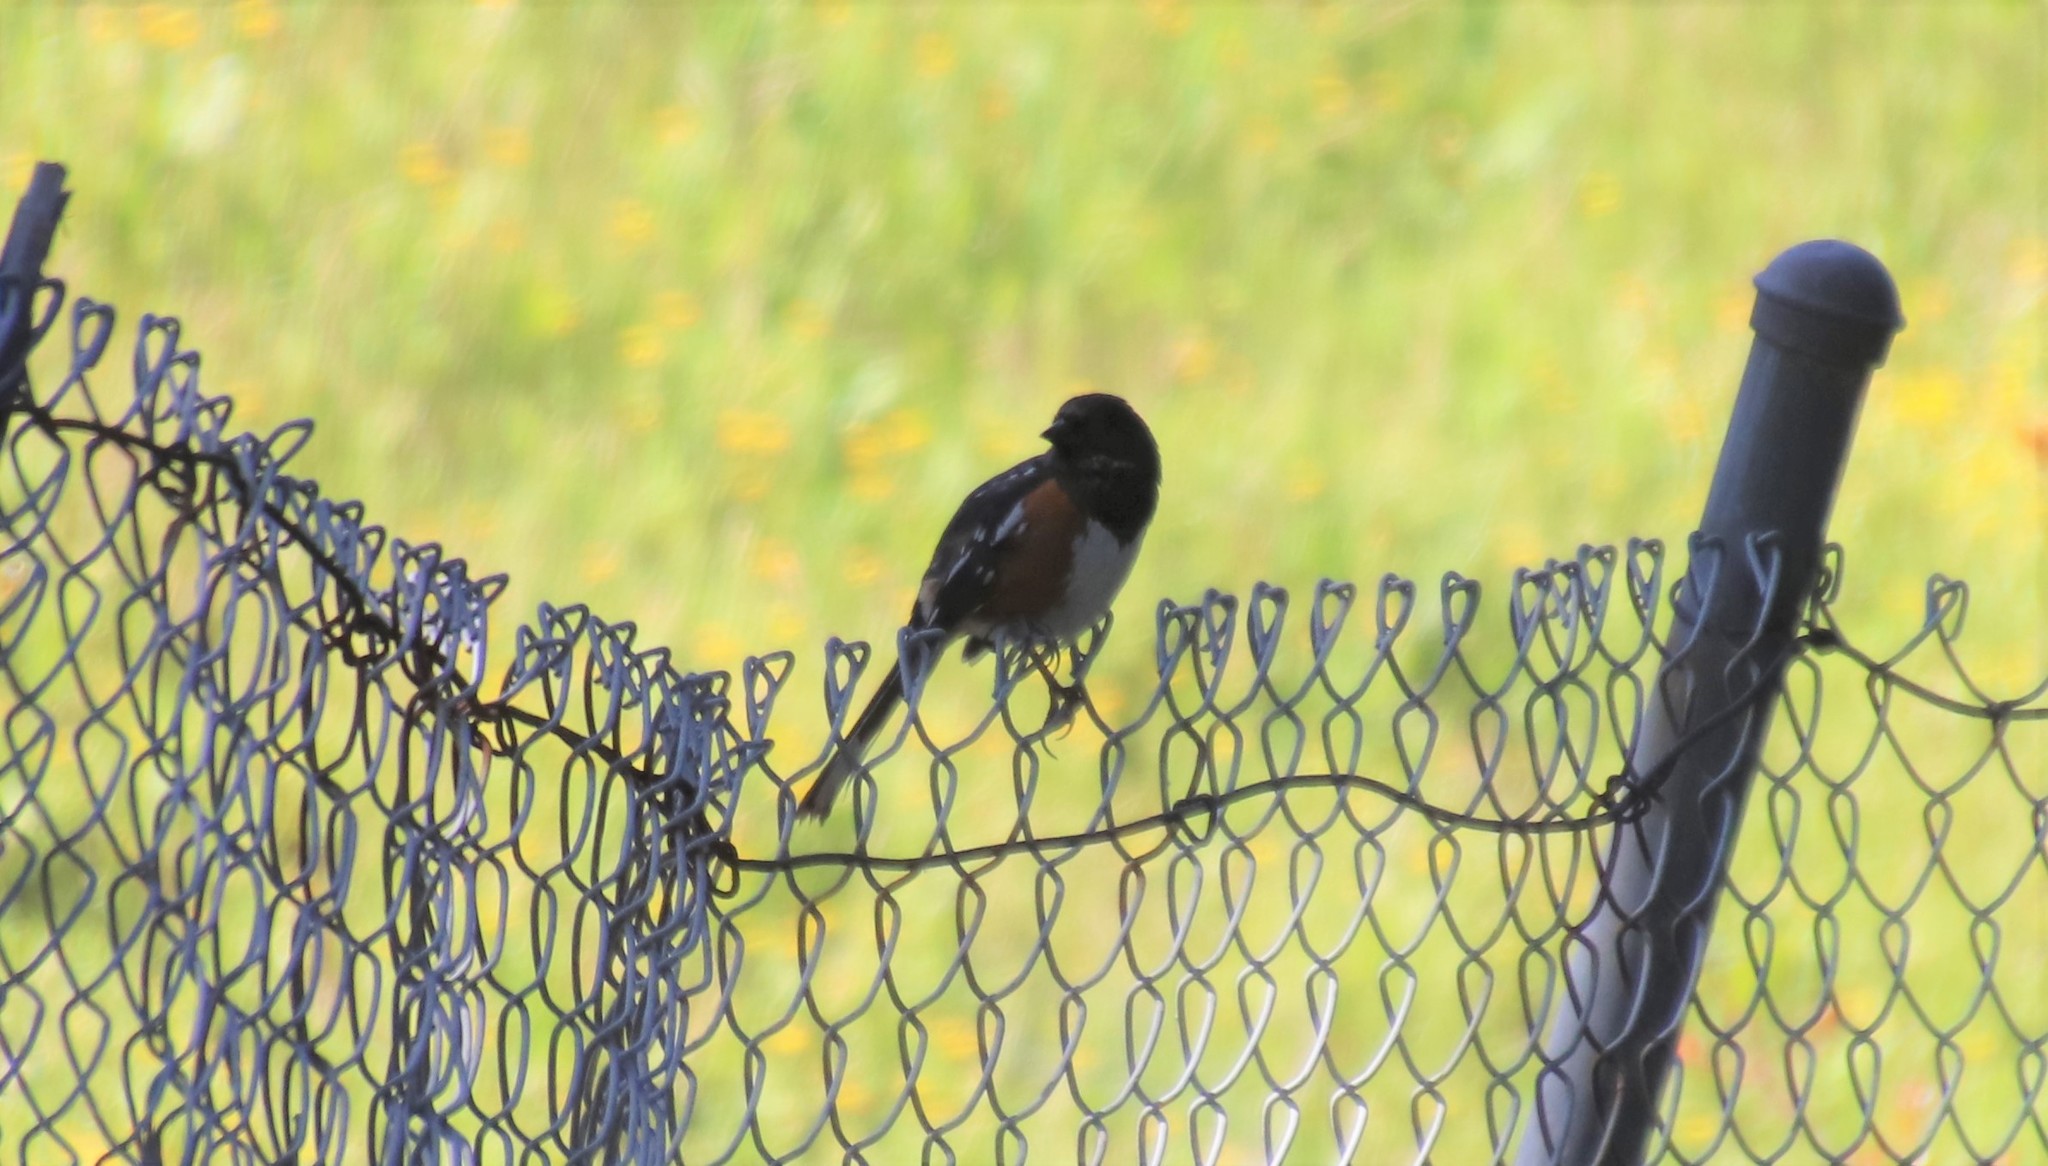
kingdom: Animalia
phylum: Chordata
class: Aves
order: Passeriformes
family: Passerellidae
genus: Pipilo
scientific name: Pipilo maculatus
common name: Spotted towhee
